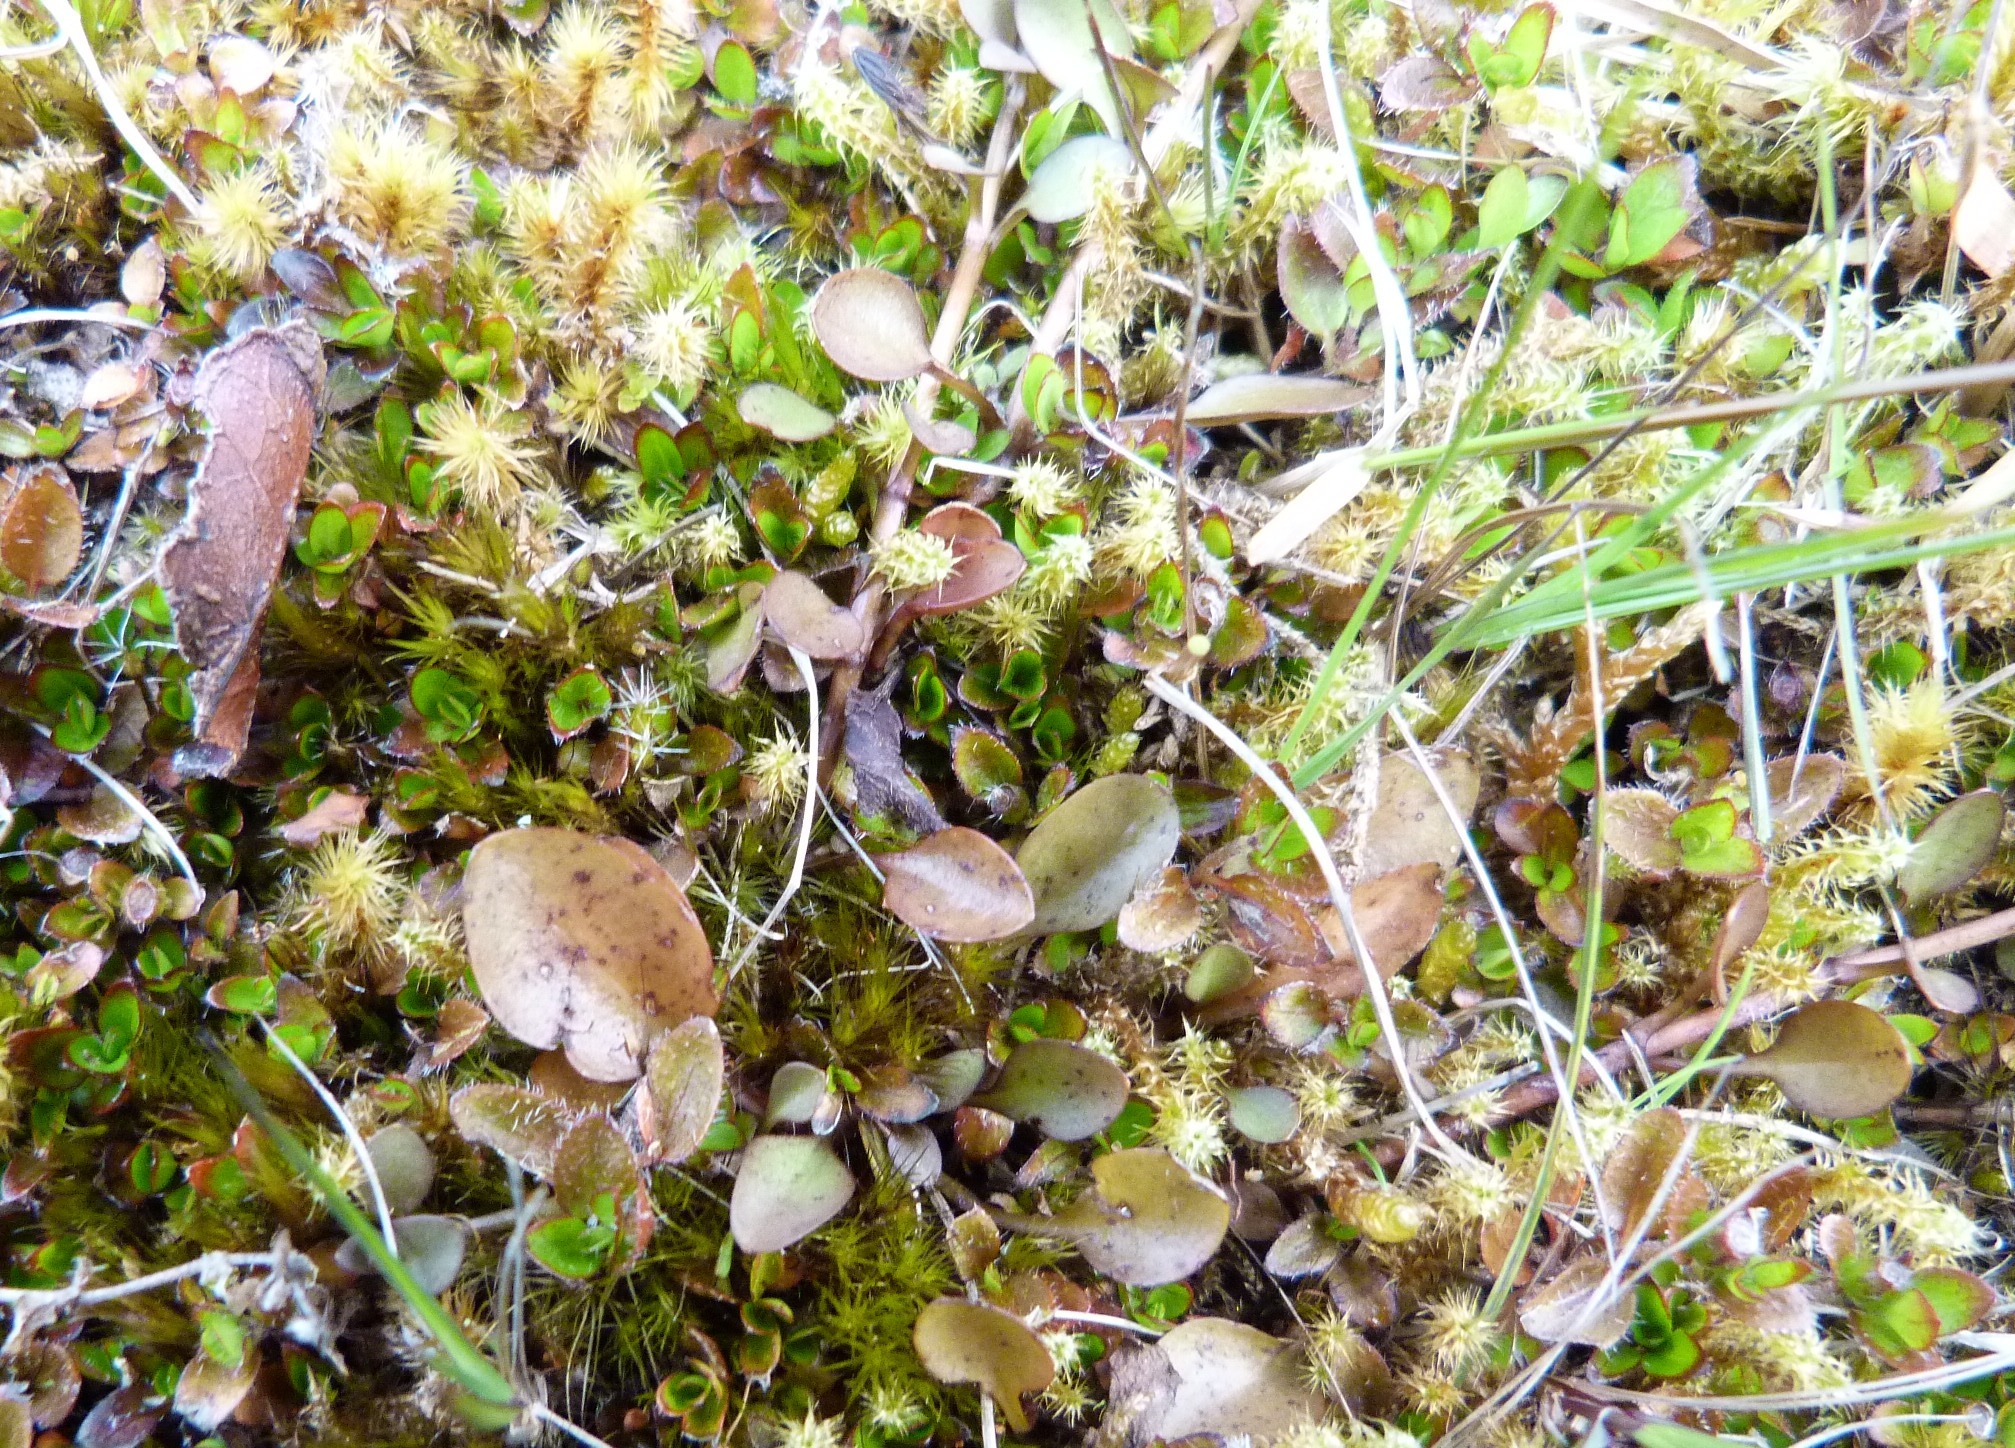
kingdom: Plantae
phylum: Tracheophyta
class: Magnoliopsida
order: Gentianales
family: Gentianaceae
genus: Gentianella
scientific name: Gentianella grisebachii
